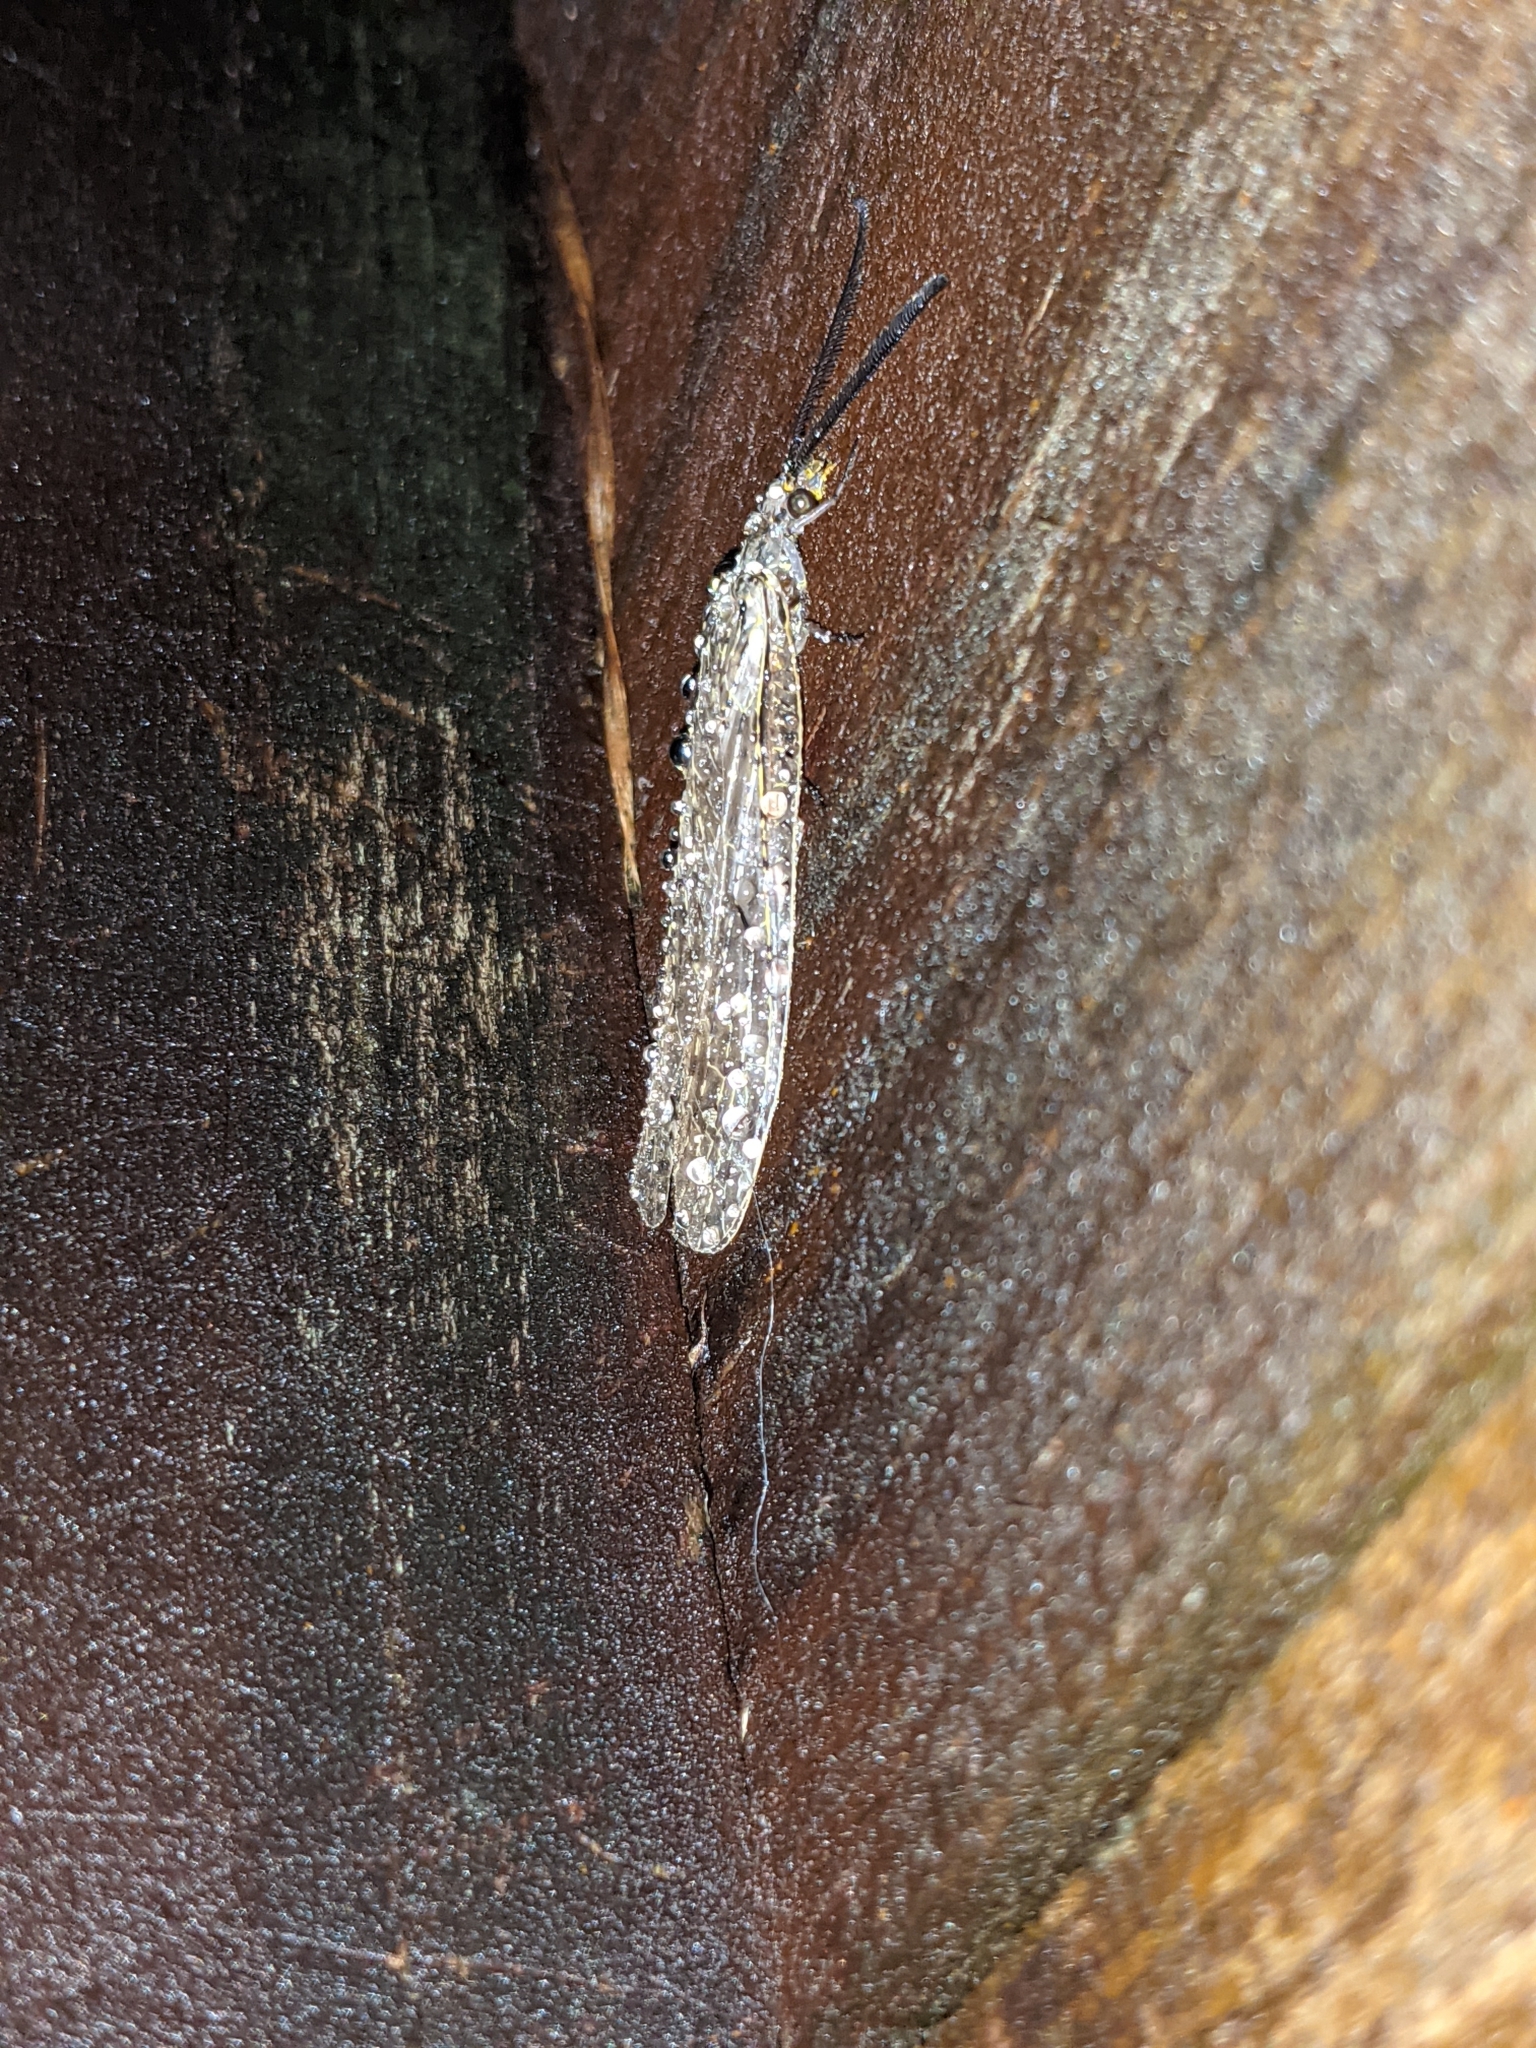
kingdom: Animalia
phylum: Arthropoda
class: Insecta
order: Megaloptera
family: Corydalidae
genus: Chauliodes
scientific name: Chauliodes rastricornis
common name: Spring fishfly
